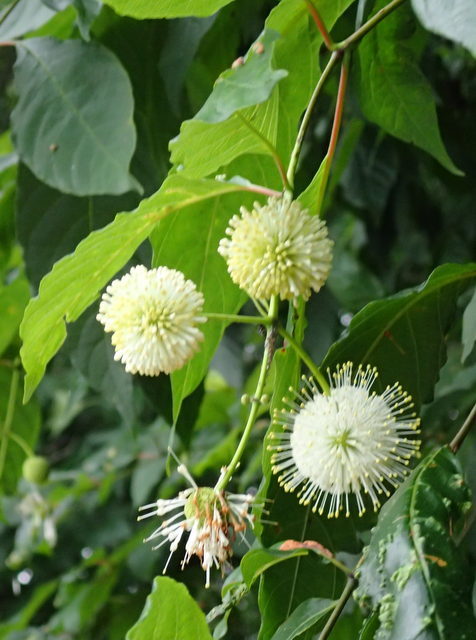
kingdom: Plantae
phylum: Tracheophyta
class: Magnoliopsida
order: Gentianales
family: Rubiaceae
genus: Cephalanthus
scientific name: Cephalanthus occidentalis
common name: Button-willow
